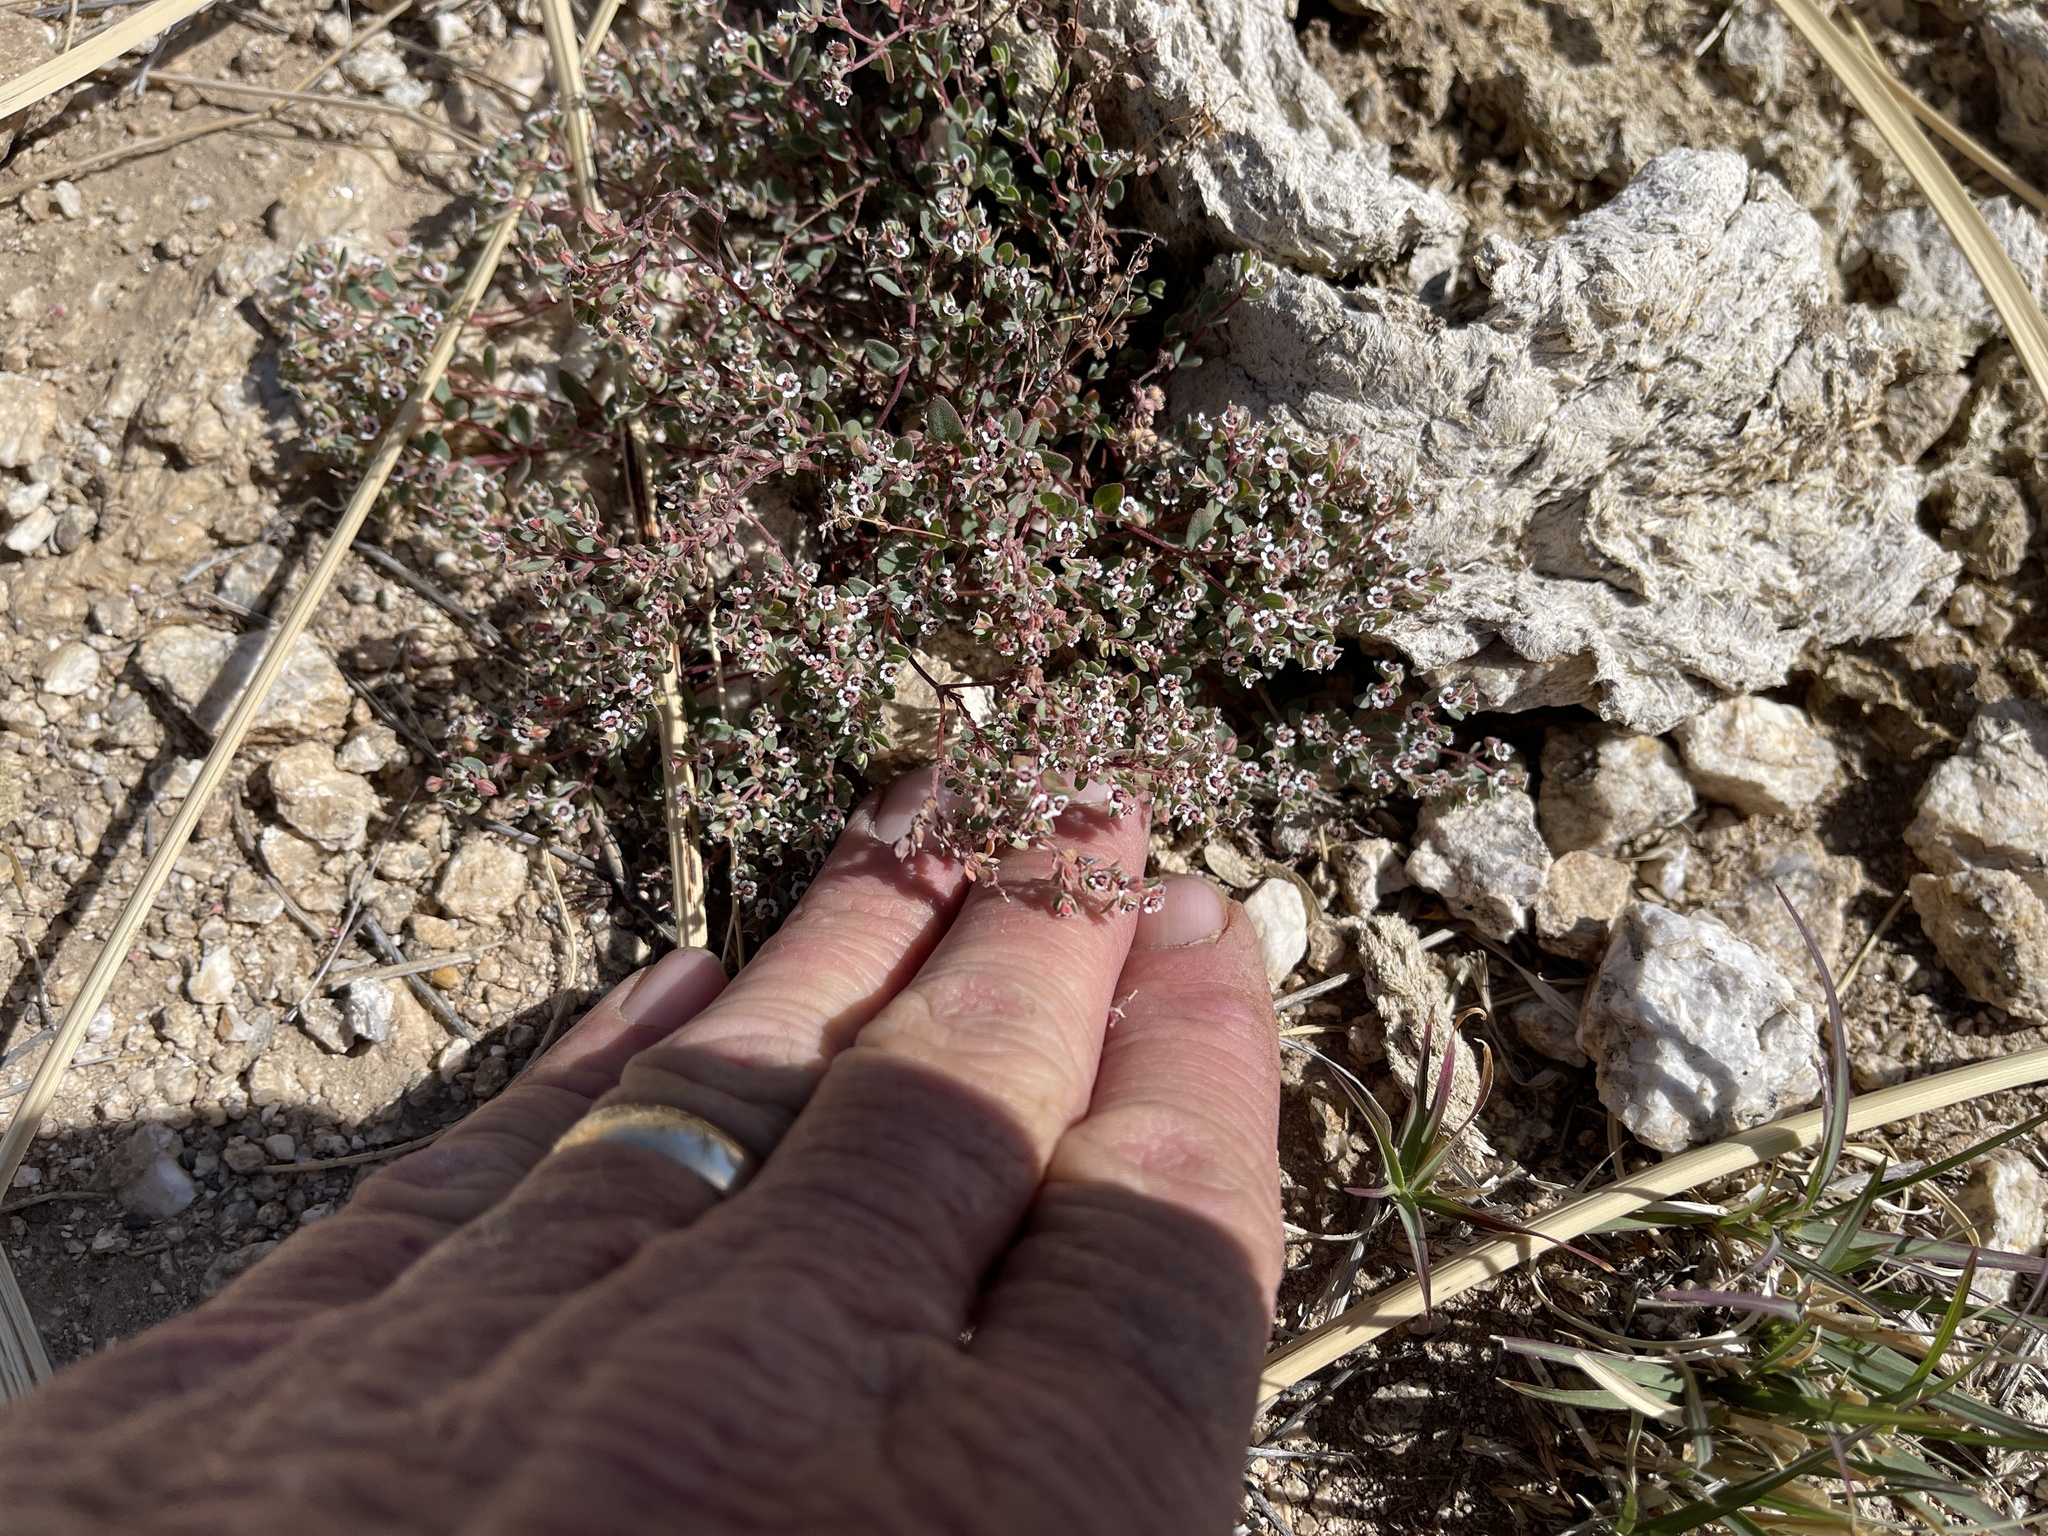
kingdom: Plantae
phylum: Tracheophyta
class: Magnoliopsida
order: Malpighiales
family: Euphorbiaceae
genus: Euphorbia
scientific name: Euphorbia melanadenia
